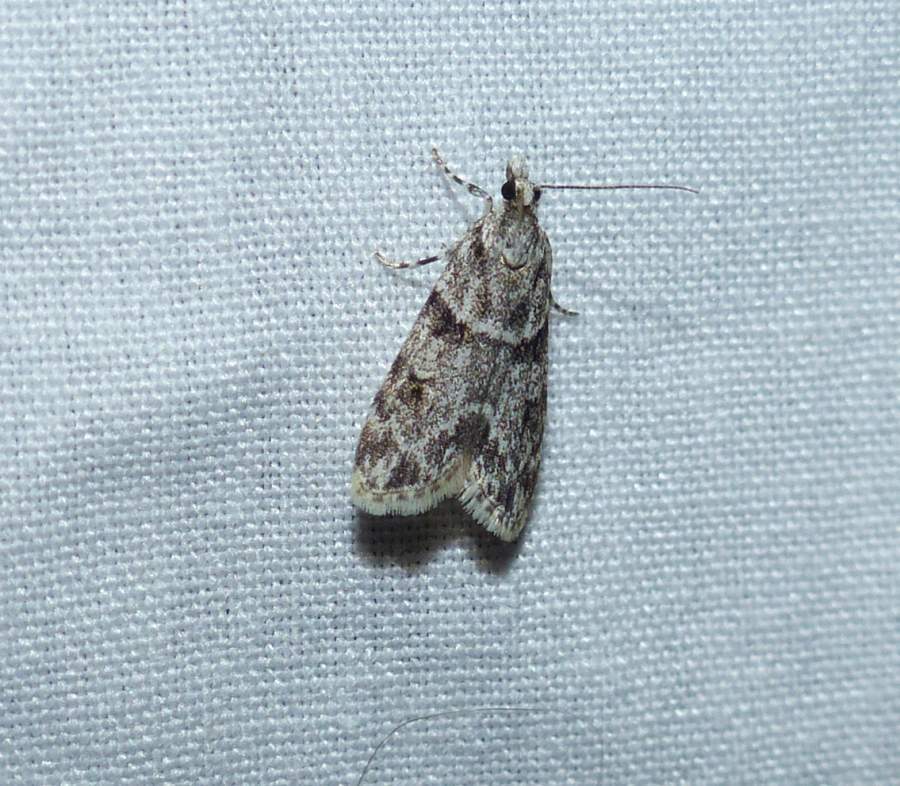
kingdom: Animalia
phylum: Arthropoda
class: Insecta
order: Lepidoptera
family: Crambidae
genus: Scoparia
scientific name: Scoparia biplagialis
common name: Double-striped scoparia moth
